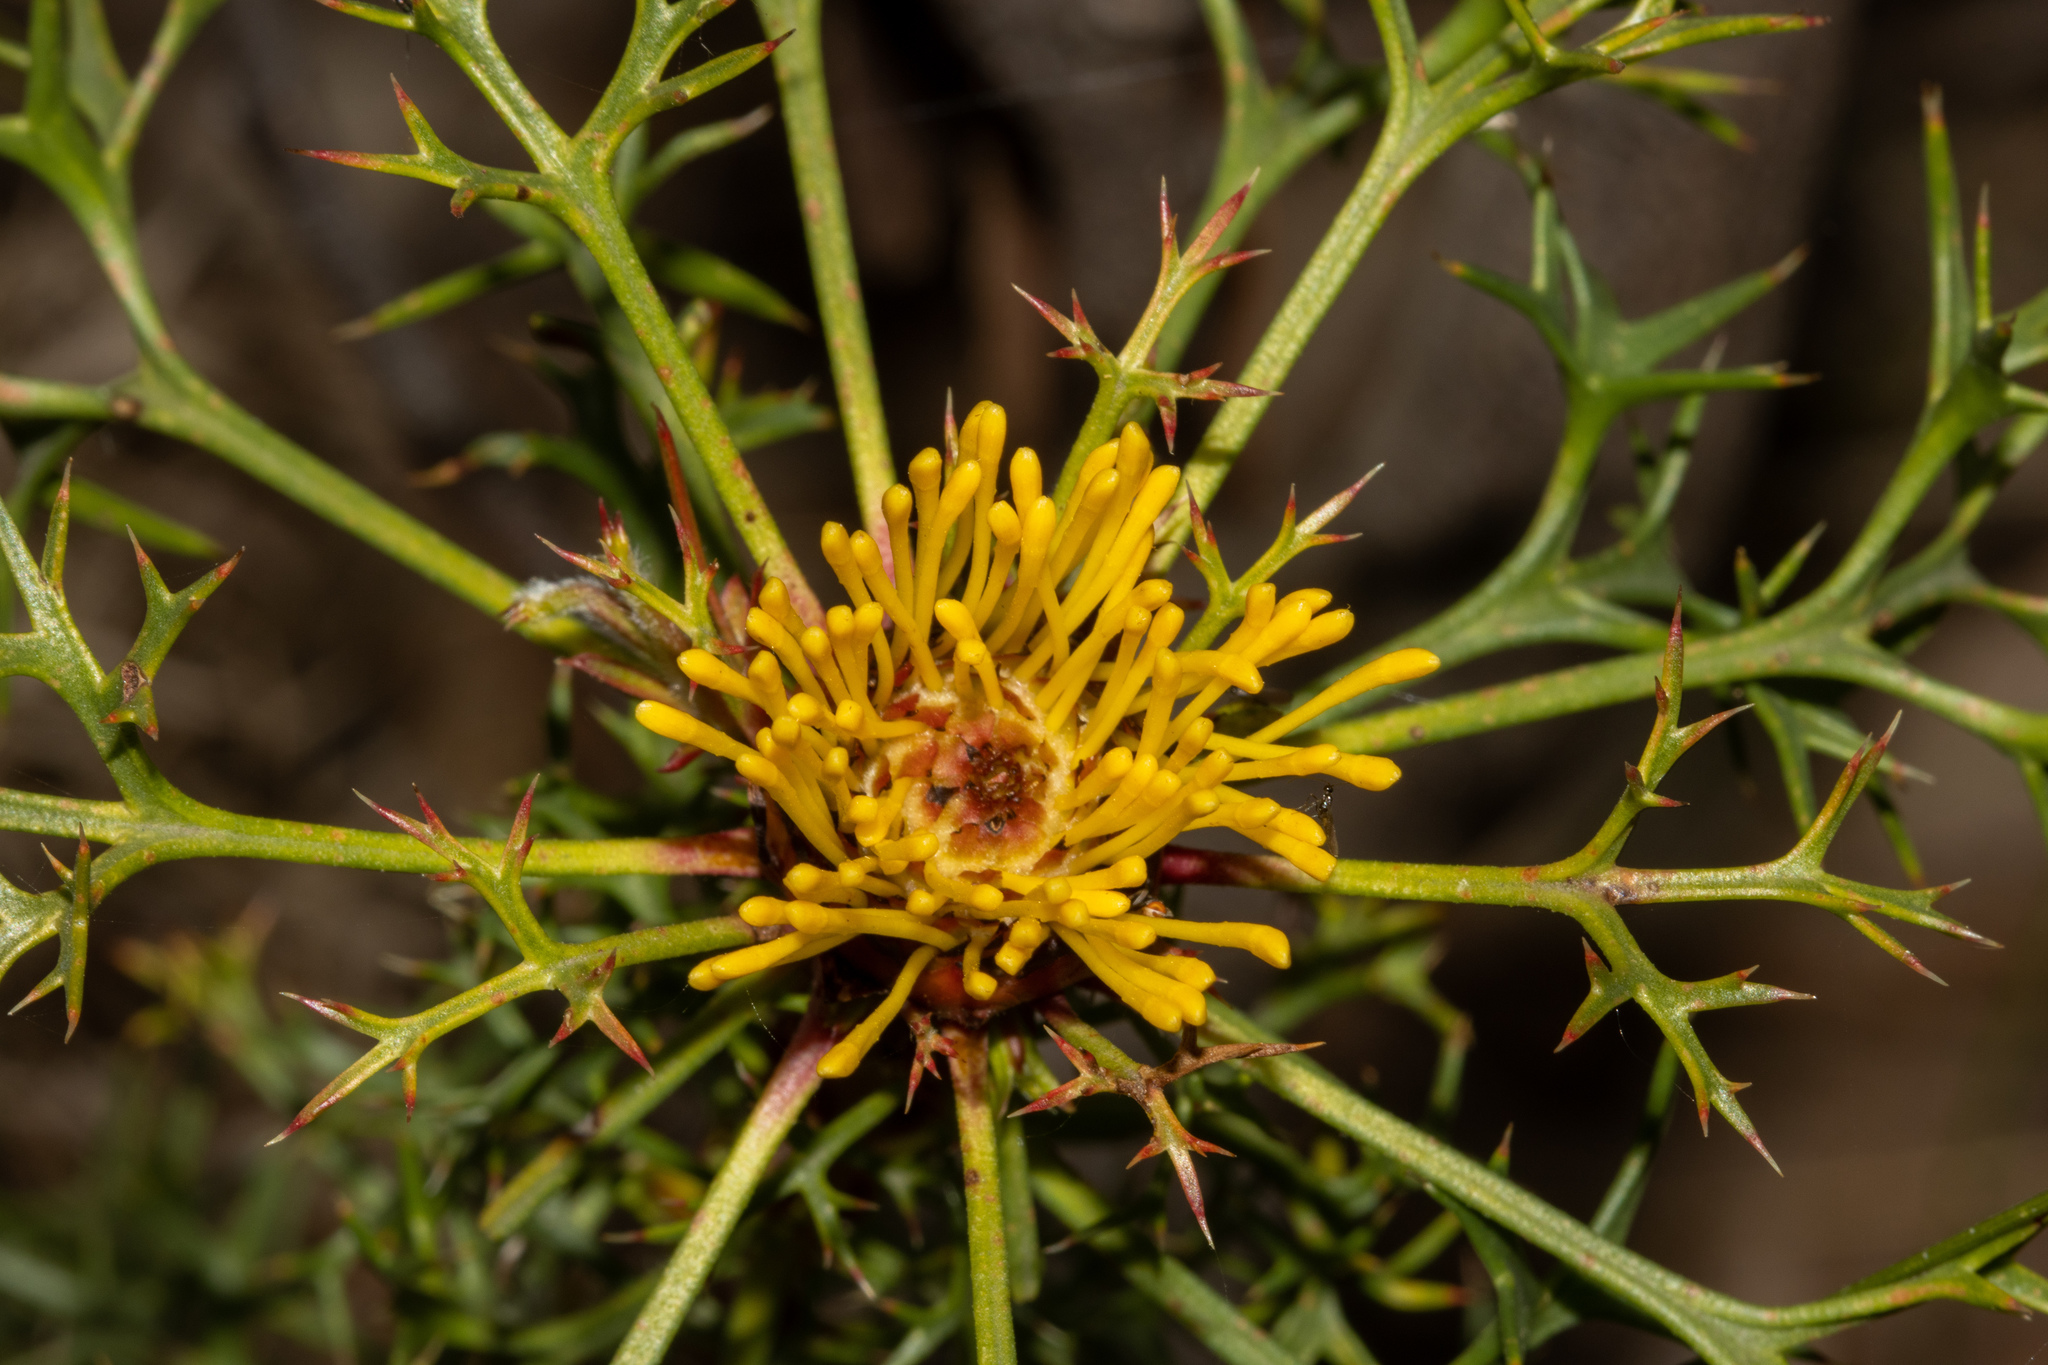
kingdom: Plantae
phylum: Tracheophyta
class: Magnoliopsida
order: Proteales
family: Proteaceae
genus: Isopogon
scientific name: Isopogon ceratophyllus
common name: Horny cone-bush
